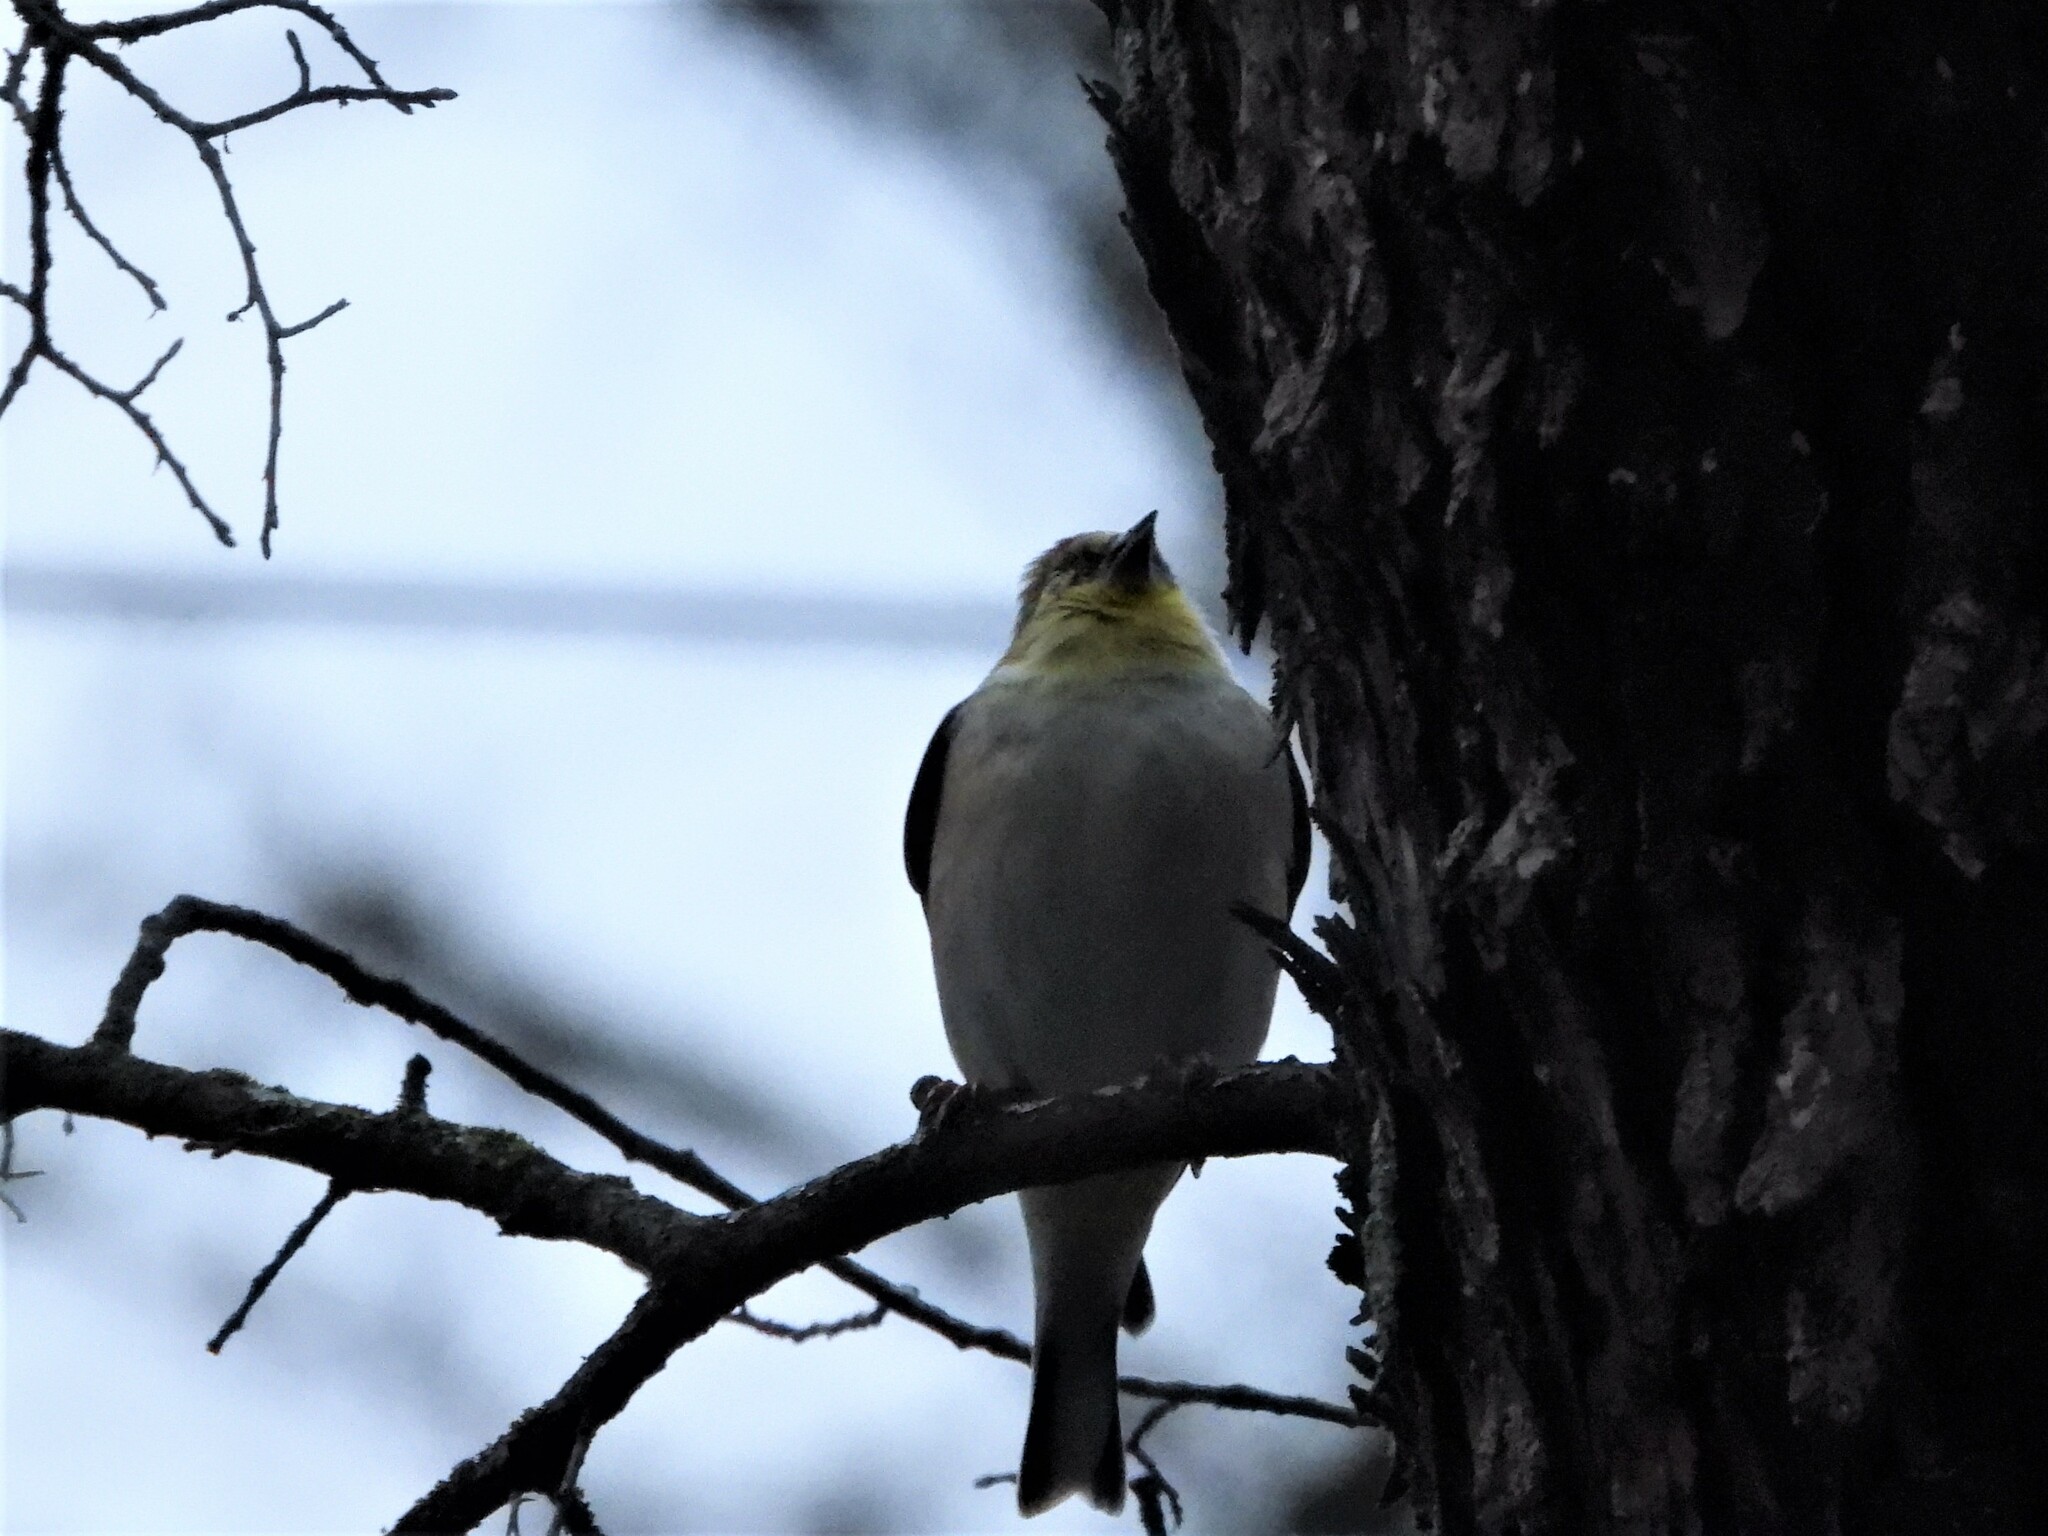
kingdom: Animalia
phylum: Chordata
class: Aves
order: Passeriformes
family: Fringillidae
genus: Spinus
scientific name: Spinus tristis
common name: American goldfinch
